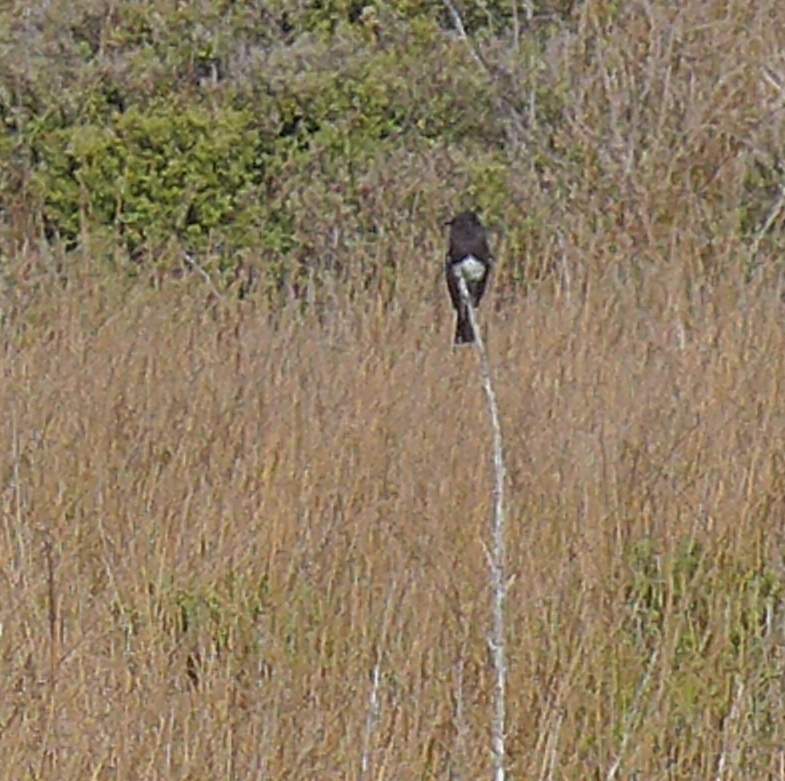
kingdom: Animalia
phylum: Chordata
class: Aves
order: Passeriformes
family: Tyrannidae
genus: Sayornis
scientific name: Sayornis nigricans
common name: Black phoebe
